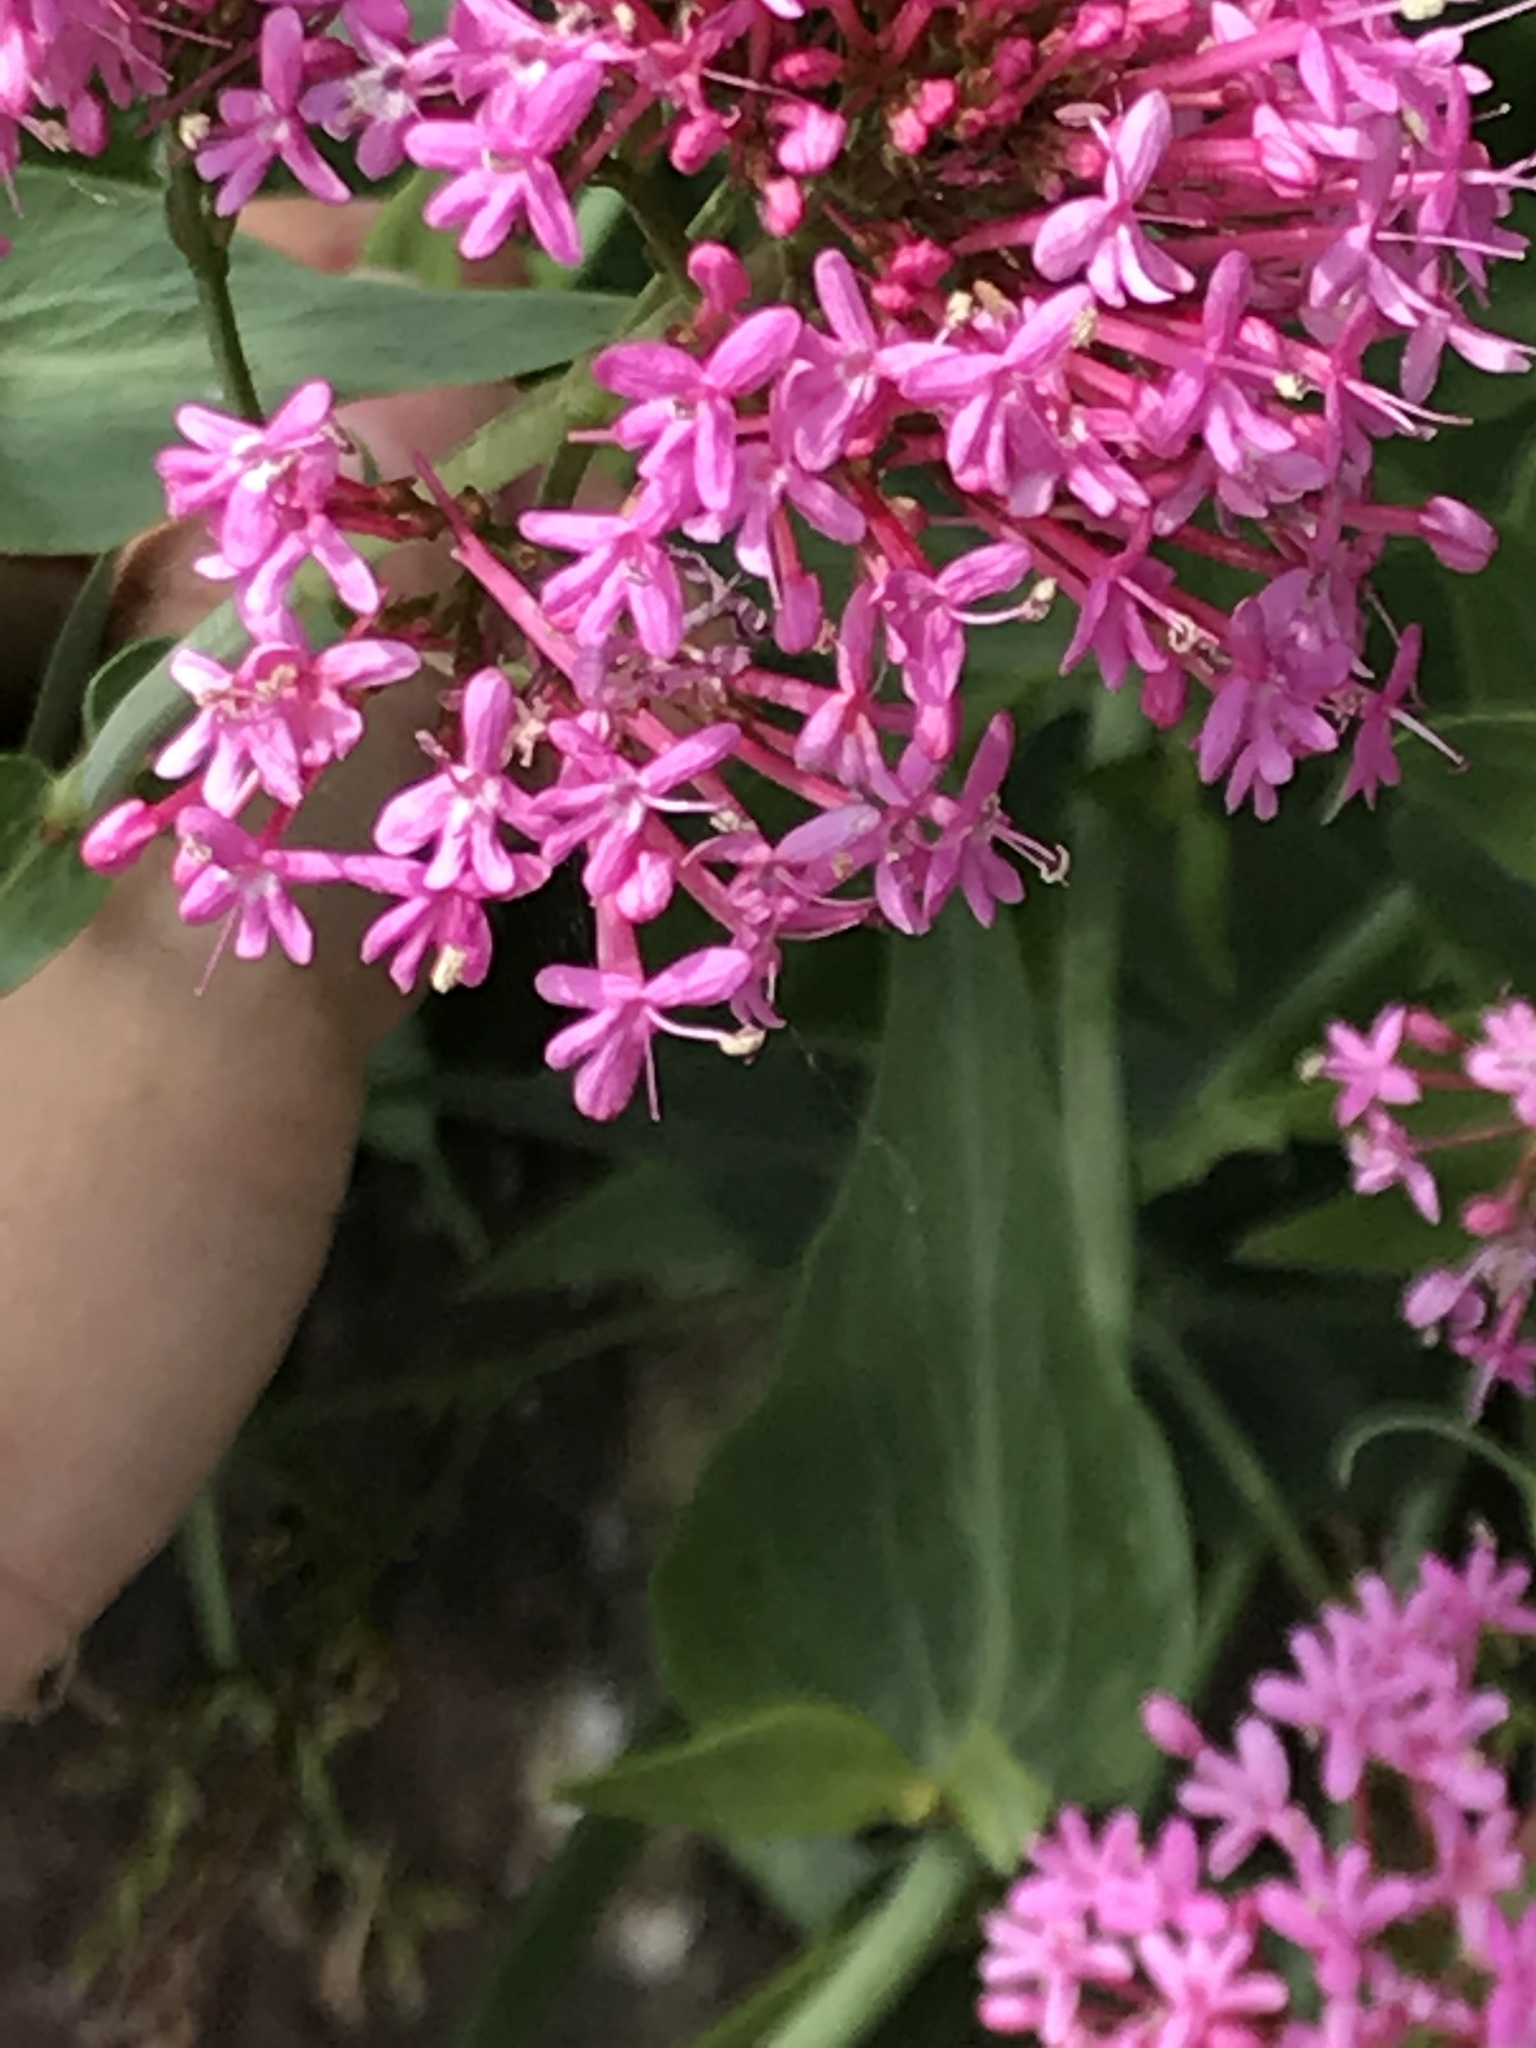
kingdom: Plantae
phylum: Tracheophyta
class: Magnoliopsida
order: Dipsacales
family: Caprifoliaceae
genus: Centranthus
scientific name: Centranthus ruber
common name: Red valerian
